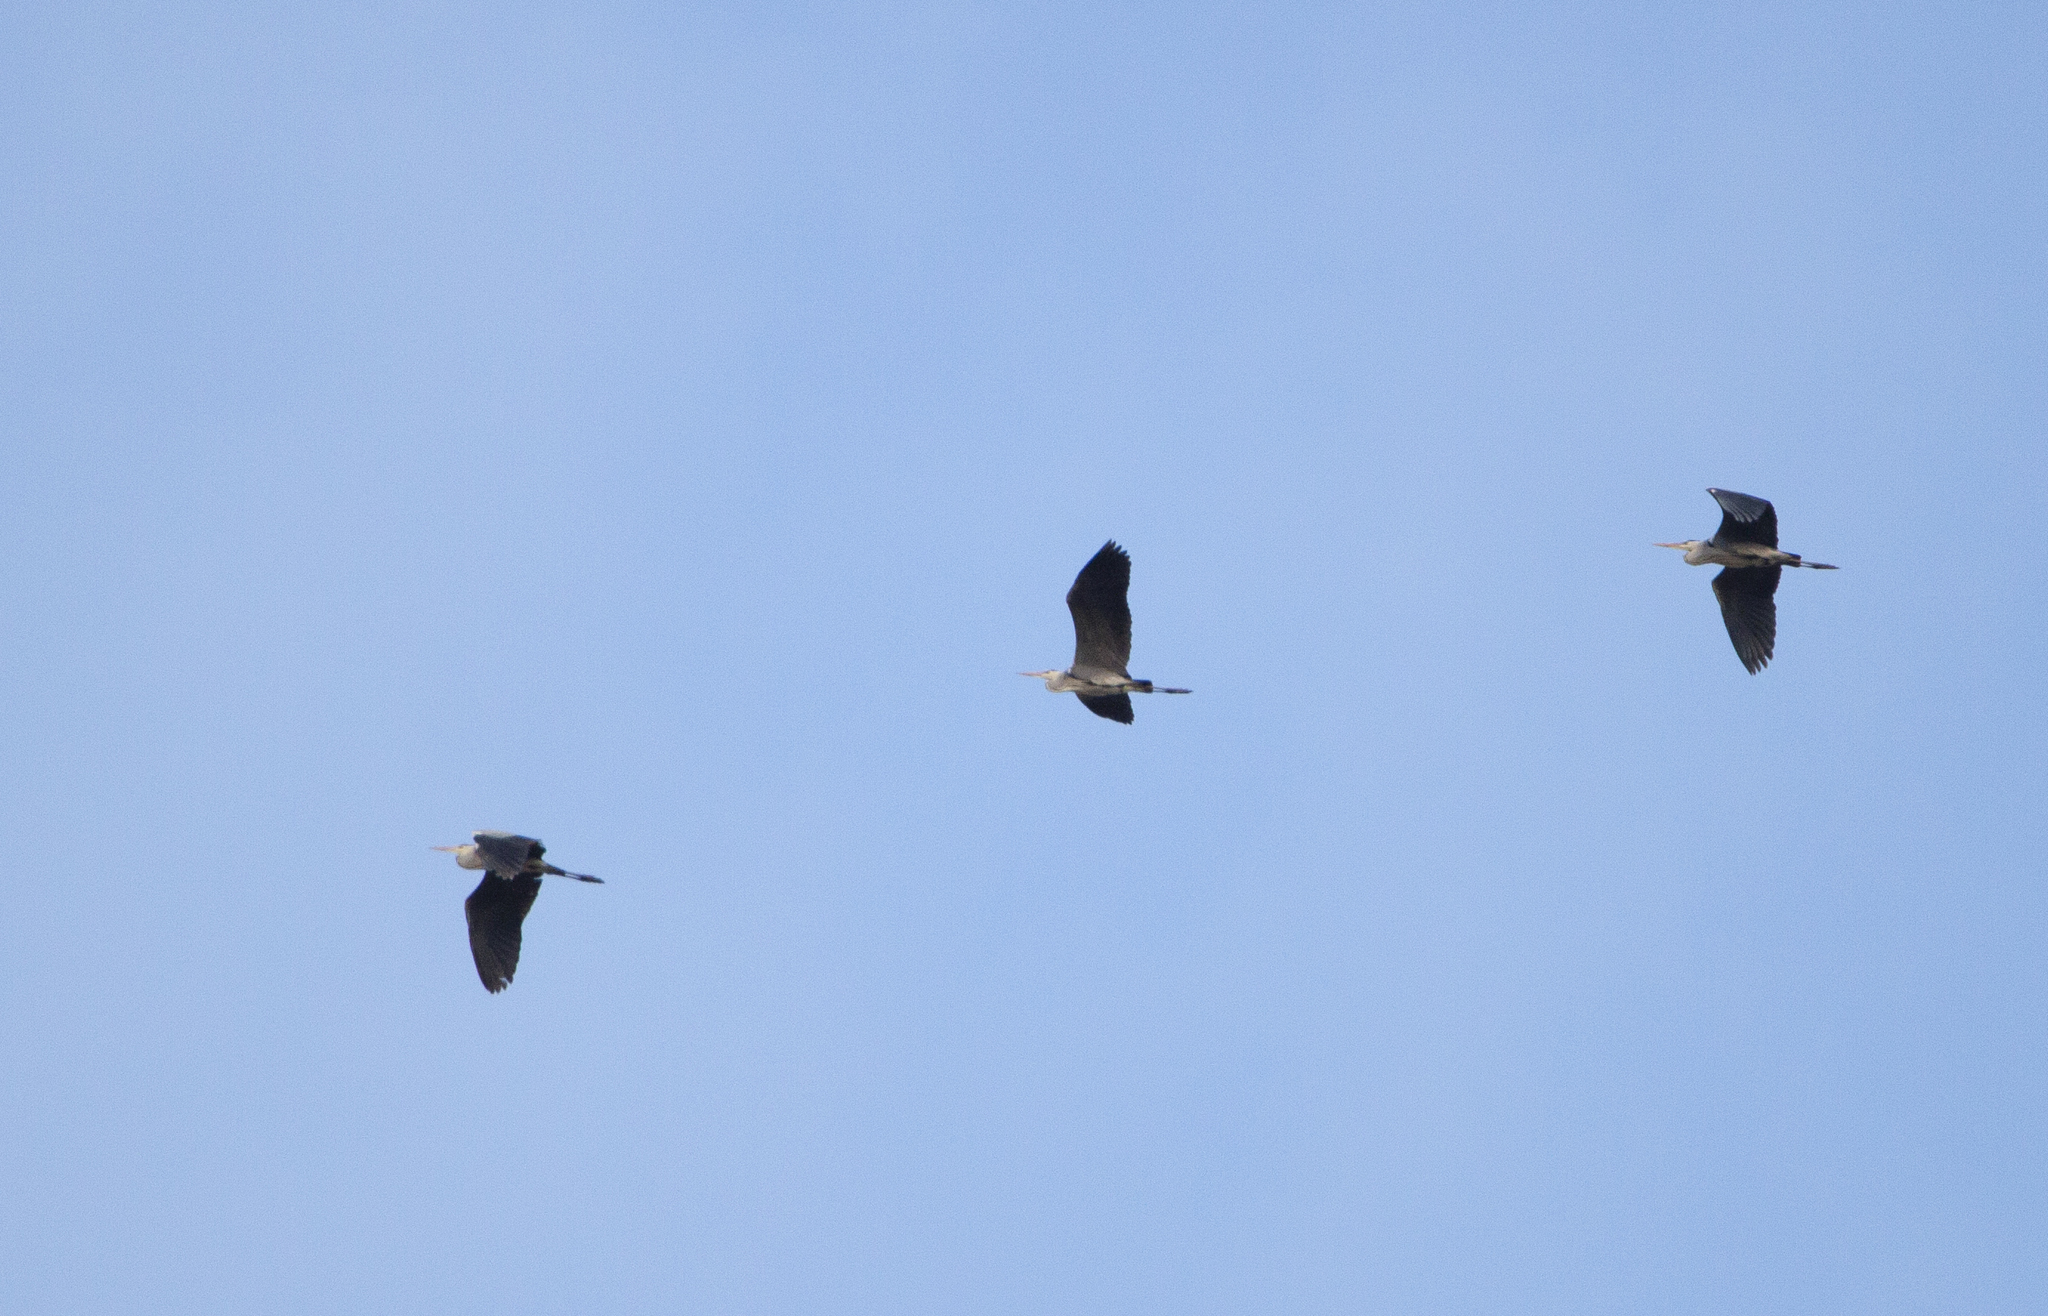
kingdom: Animalia
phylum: Chordata
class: Aves
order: Pelecaniformes
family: Ardeidae
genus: Ardea
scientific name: Ardea cinerea
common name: Grey heron
